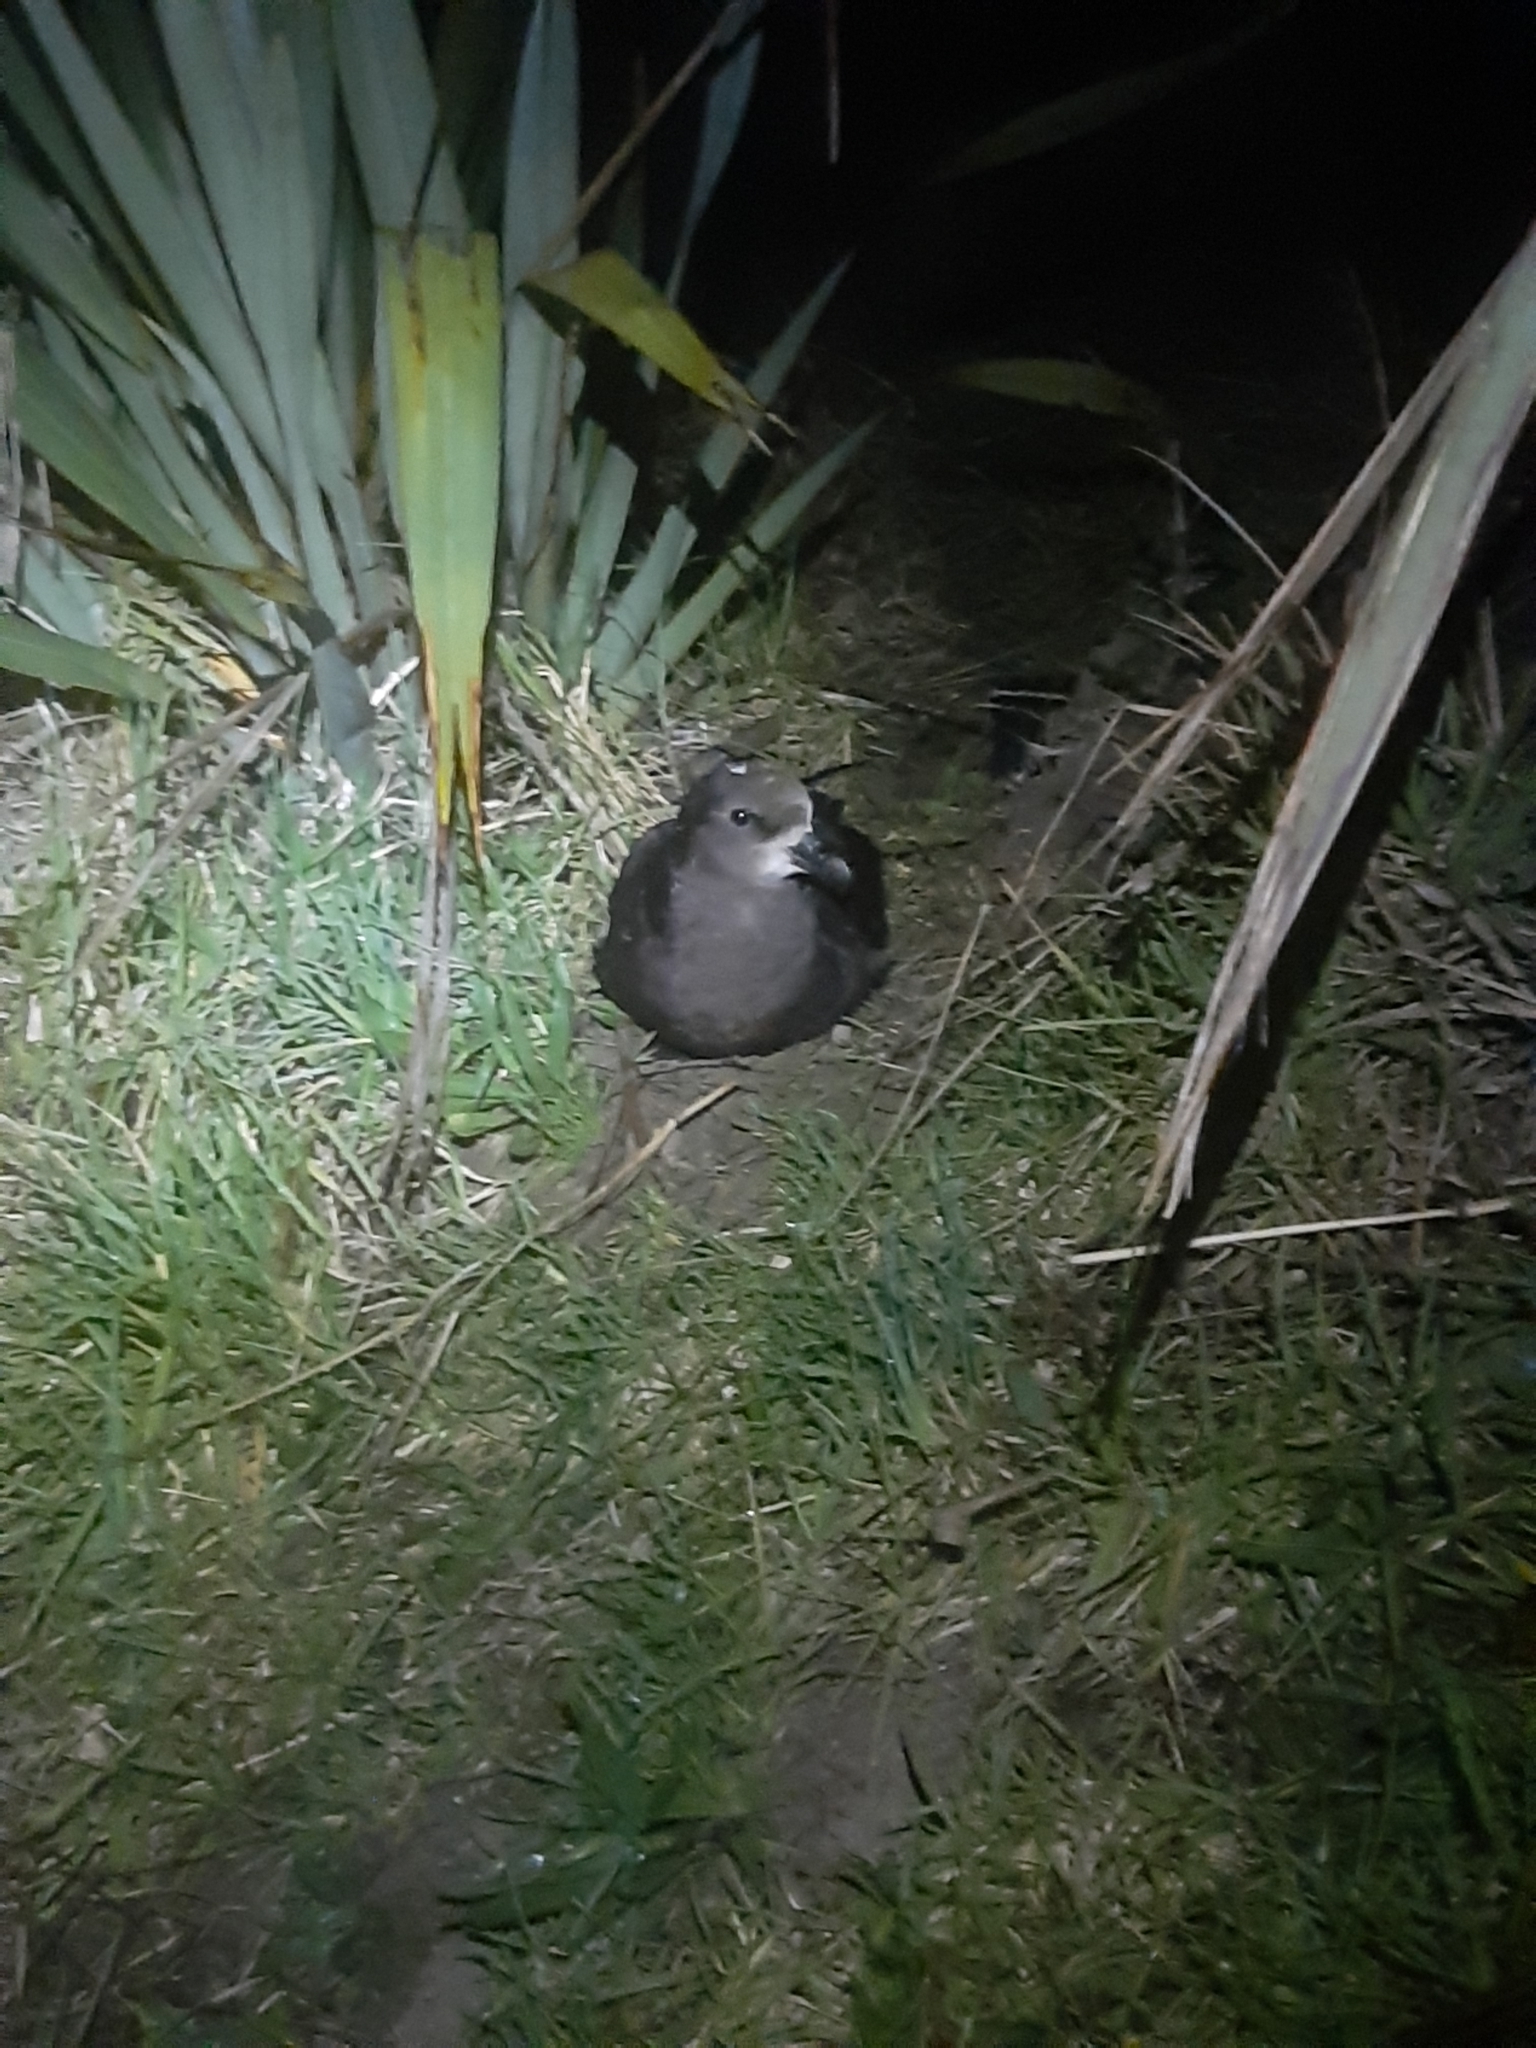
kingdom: Animalia
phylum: Chordata
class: Aves
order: Procellariiformes
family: Procellariidae
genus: Pterodroma
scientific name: Pterodroma macroptera
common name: Great-winged petrel
